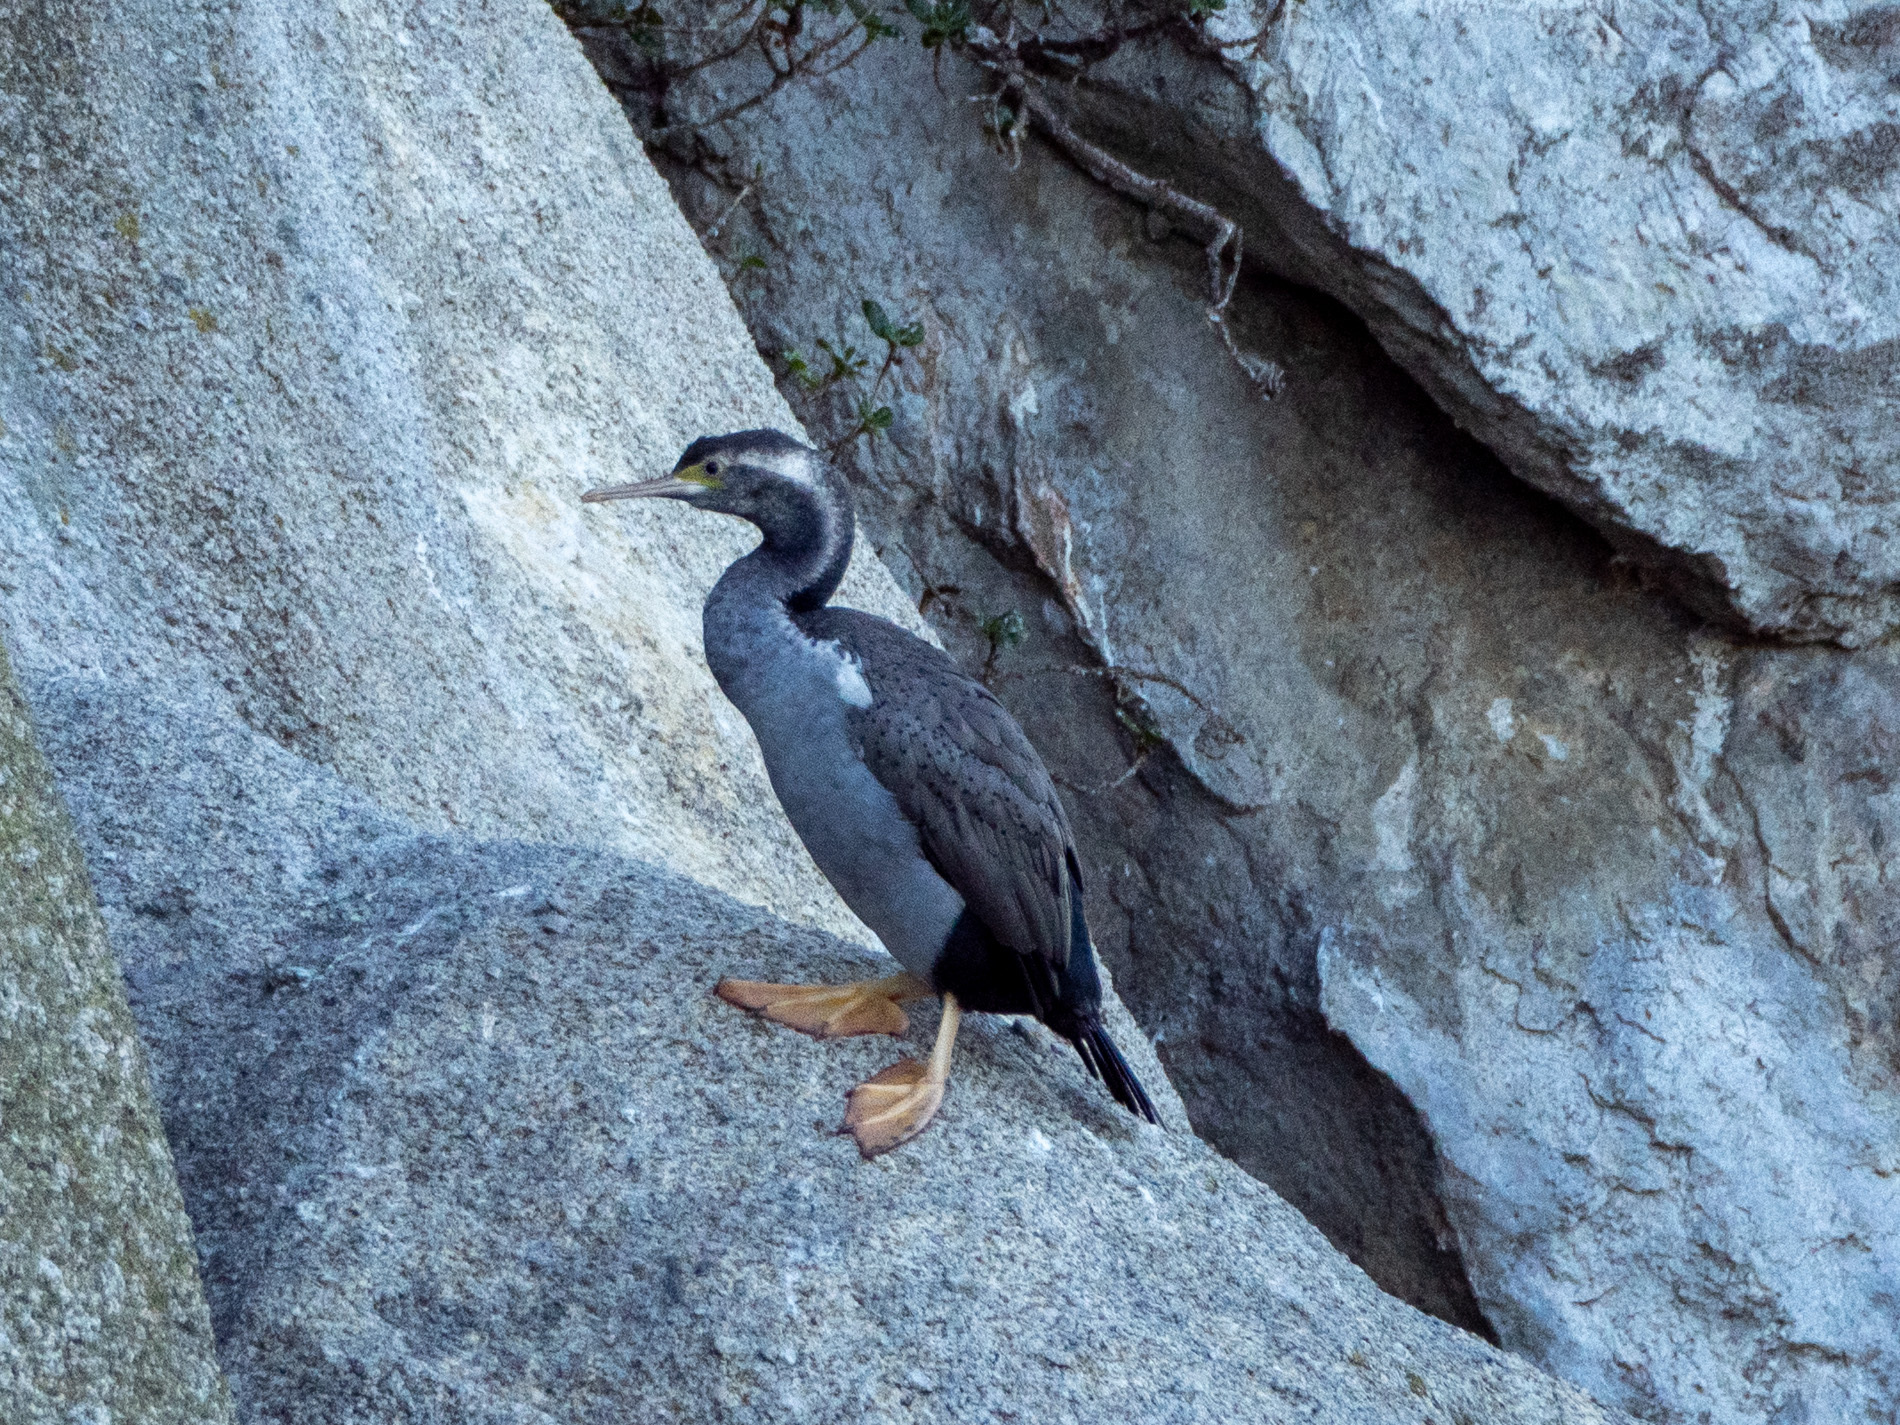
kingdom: Animalia
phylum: Chordata
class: Aves
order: Suliformes
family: Phalacrocoracidae
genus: Phalacrocorax
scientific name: Phalacrocorax punctatus
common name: Spotted shag
